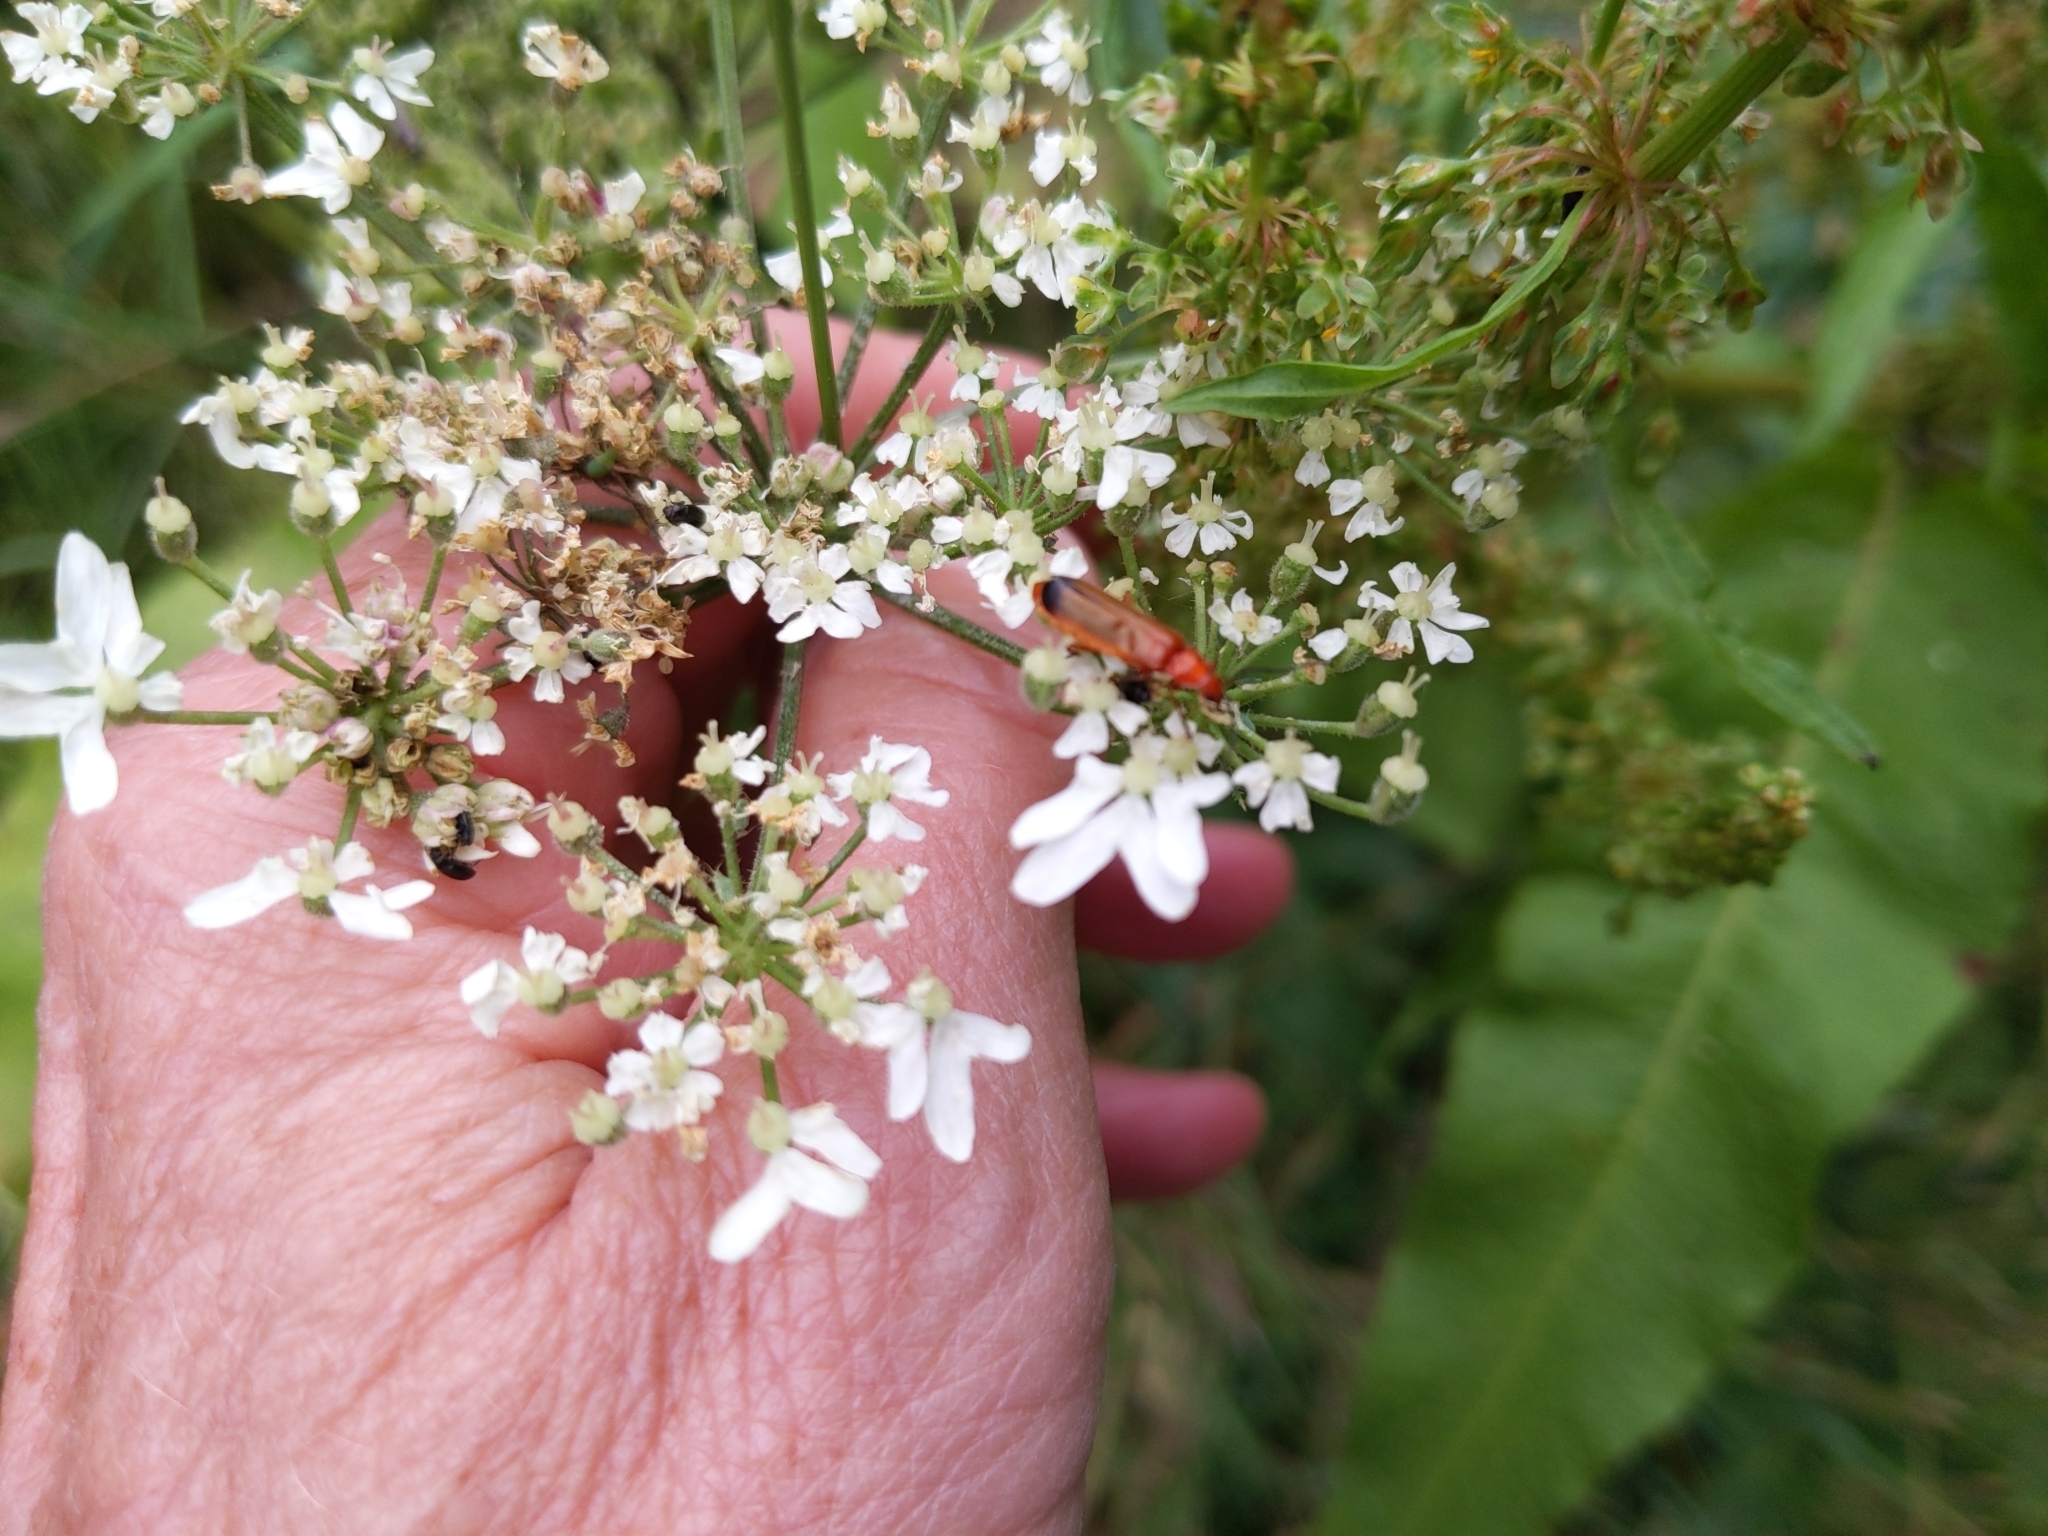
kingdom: Animalia
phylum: Arthropoda
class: Insecta
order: Coleoptera
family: Cantharidae
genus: Rhagonycha
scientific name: Rhagonycha fulva
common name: Common red soldier beetle
